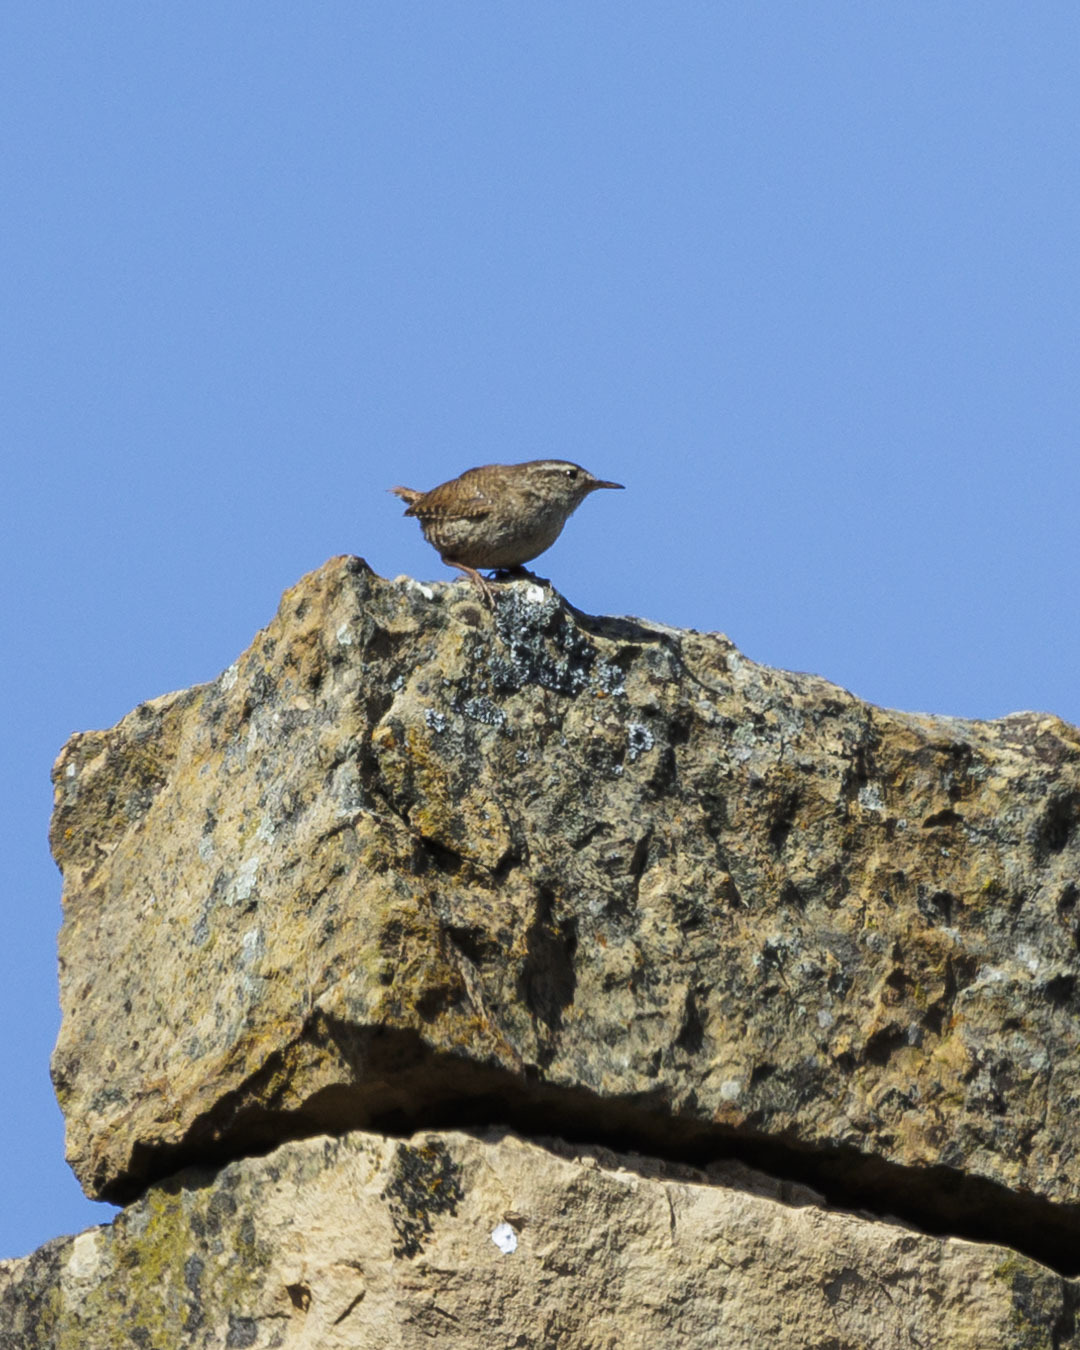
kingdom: Animalia
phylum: Chordata
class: Aves
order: Passeriformes
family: Troglodytidae
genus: Troglodytes
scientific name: Troglodytes troglodytes
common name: Eurasian wren
